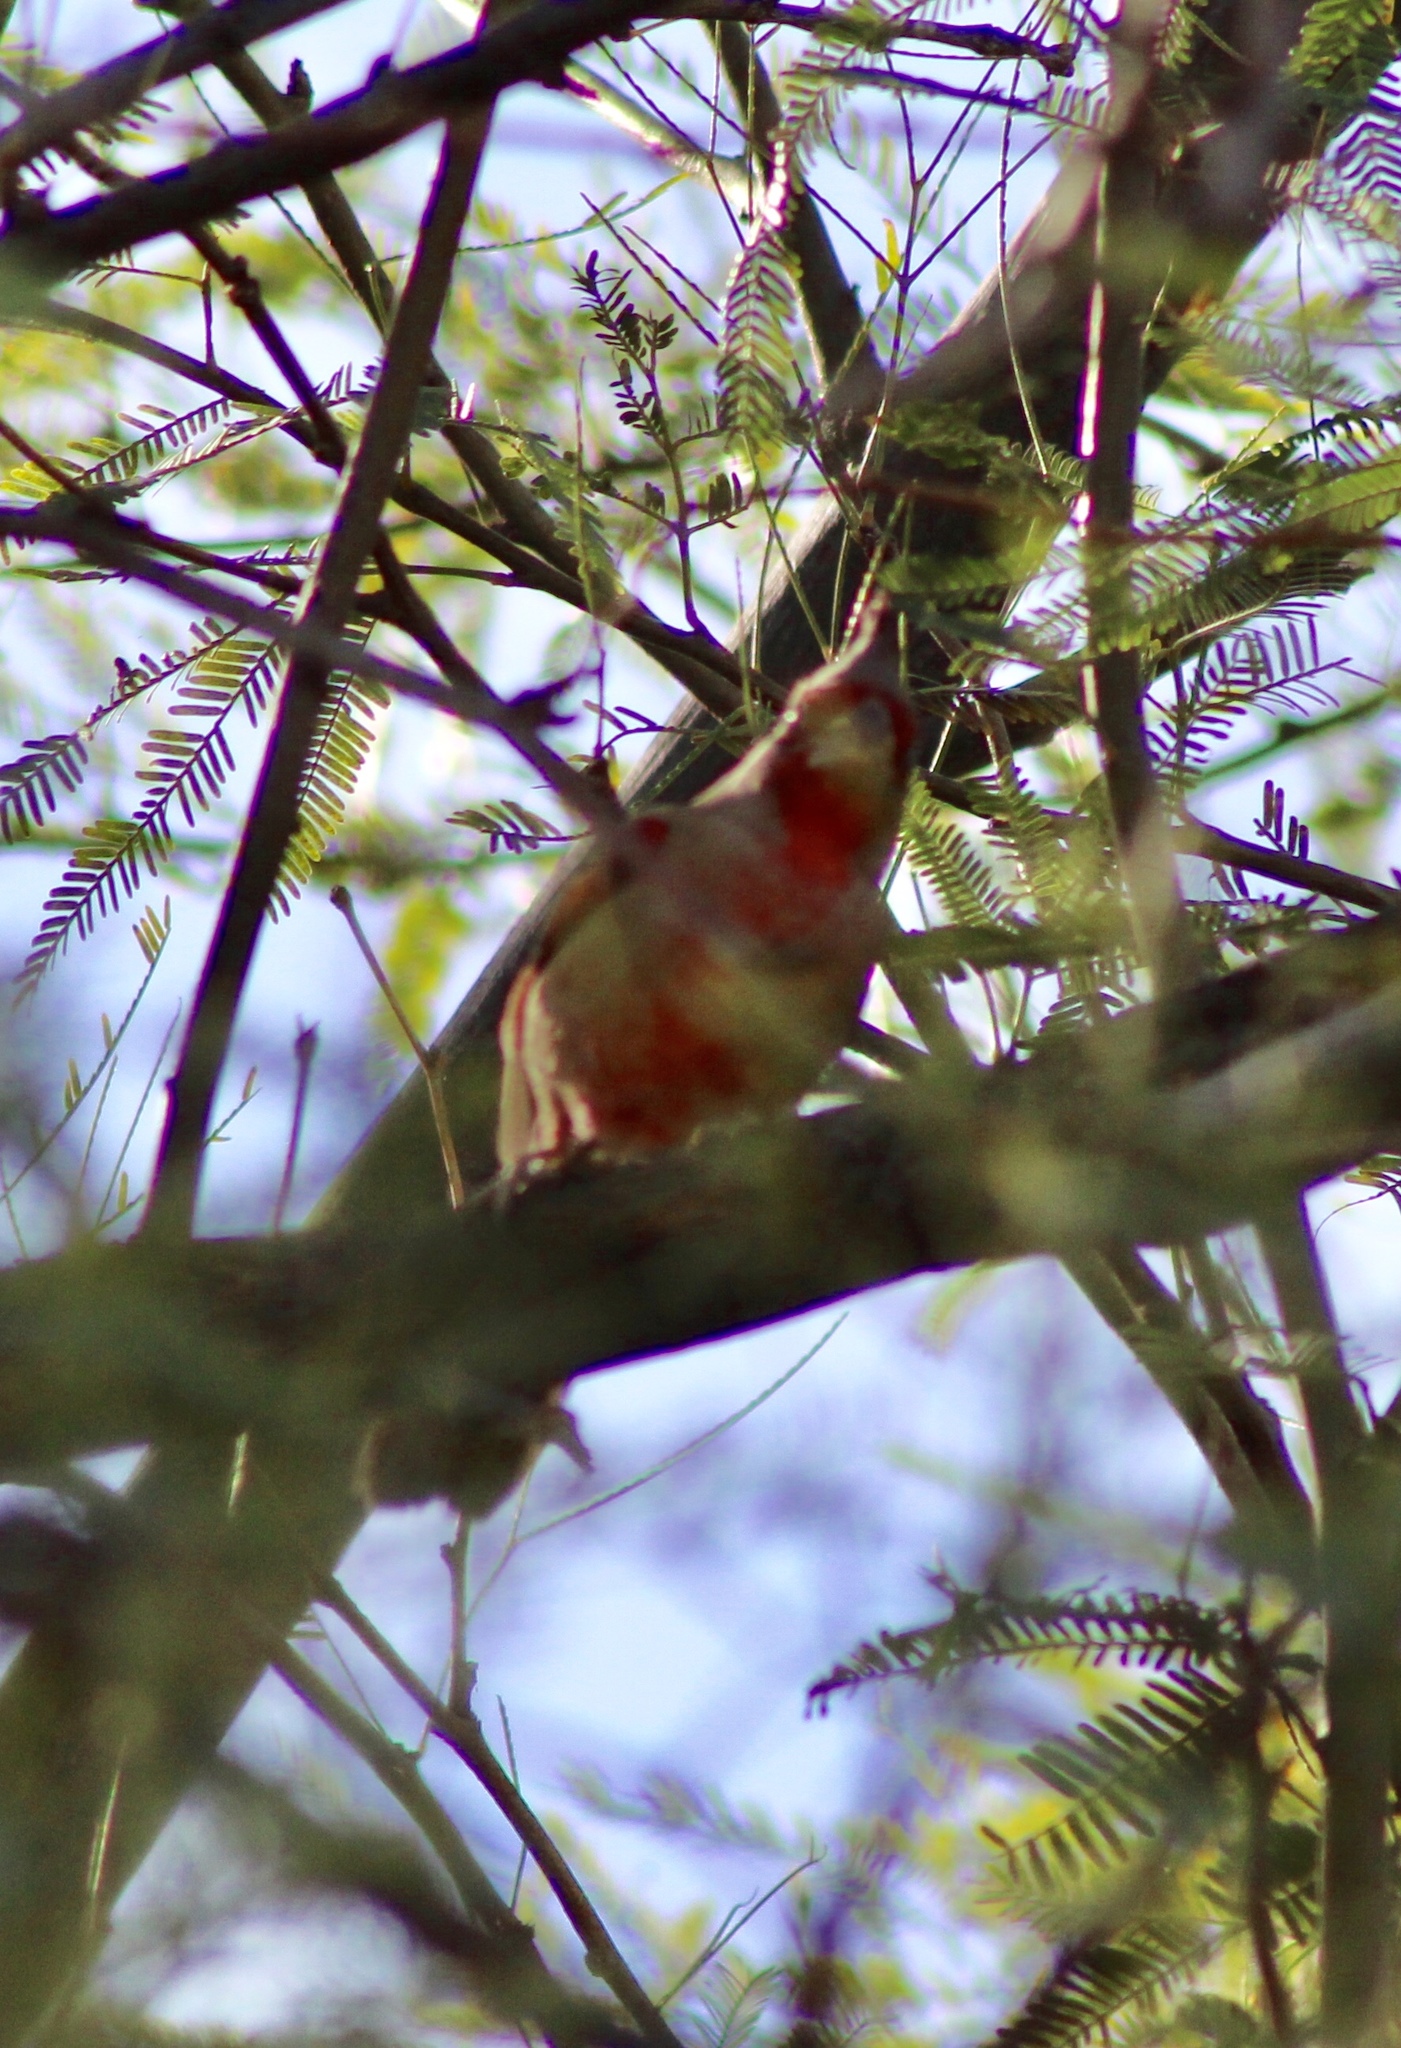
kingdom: Animalia
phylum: Chordata
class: Aves
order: Passeriformes
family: Cardinalidae
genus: Cardinalis
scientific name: Cardinalis sinuatus
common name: Pyrrhuloxia
